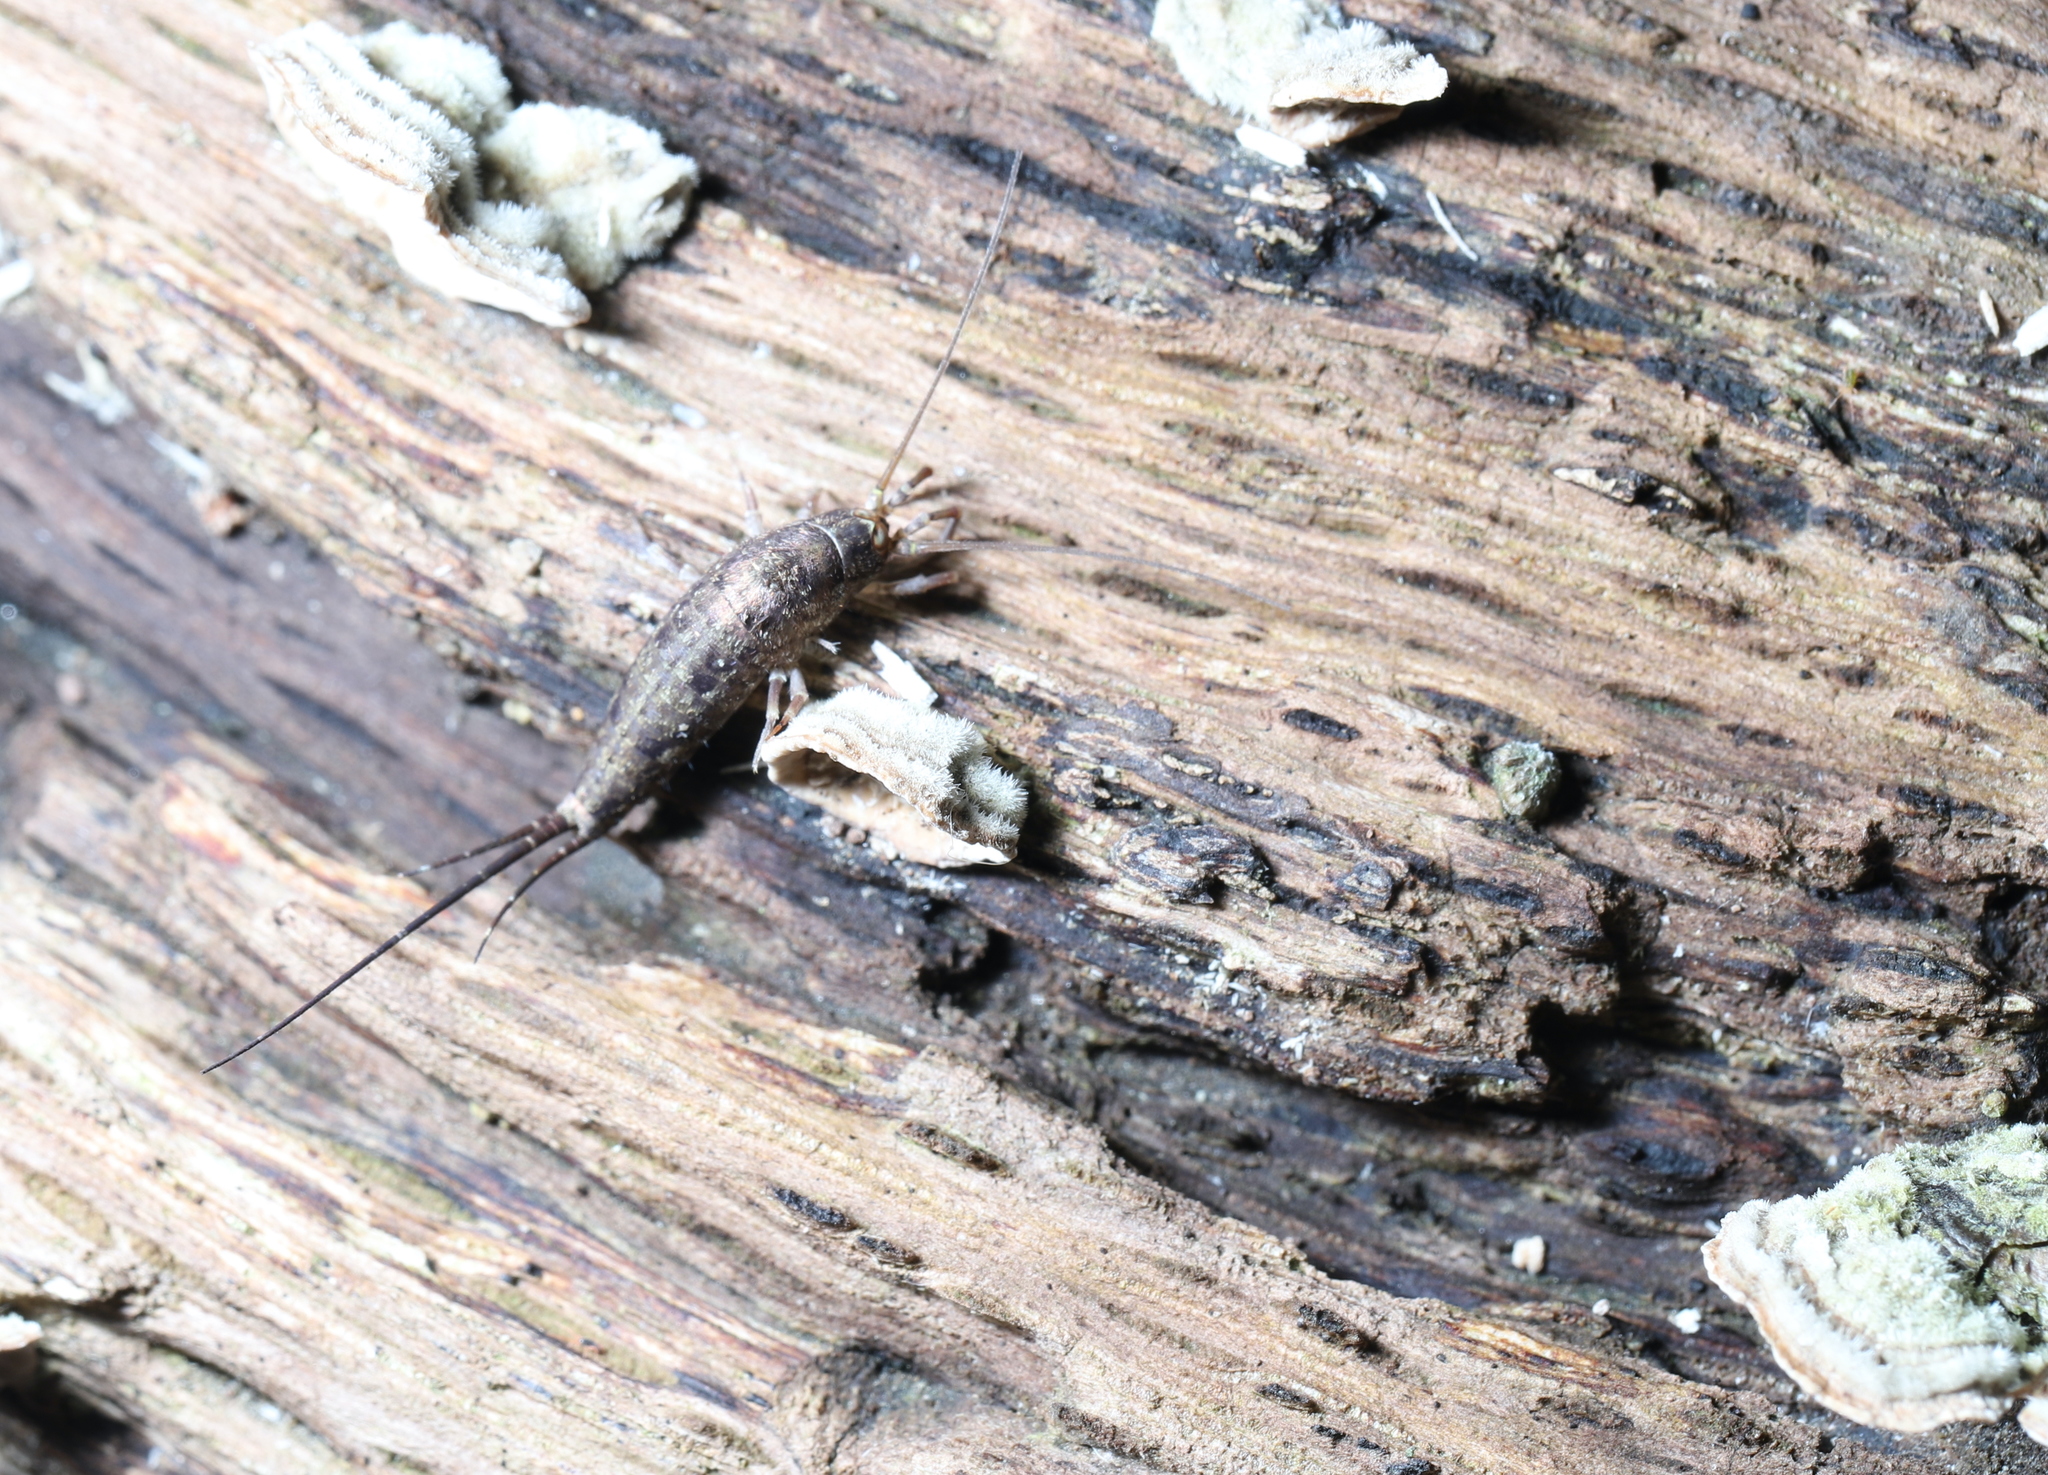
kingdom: Fungi
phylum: Basidiomycota
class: Agaricomycetes
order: Russulales
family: Stereaceae
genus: Stereum
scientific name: Stereum subtomentosum
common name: Yellowing curtain crust
